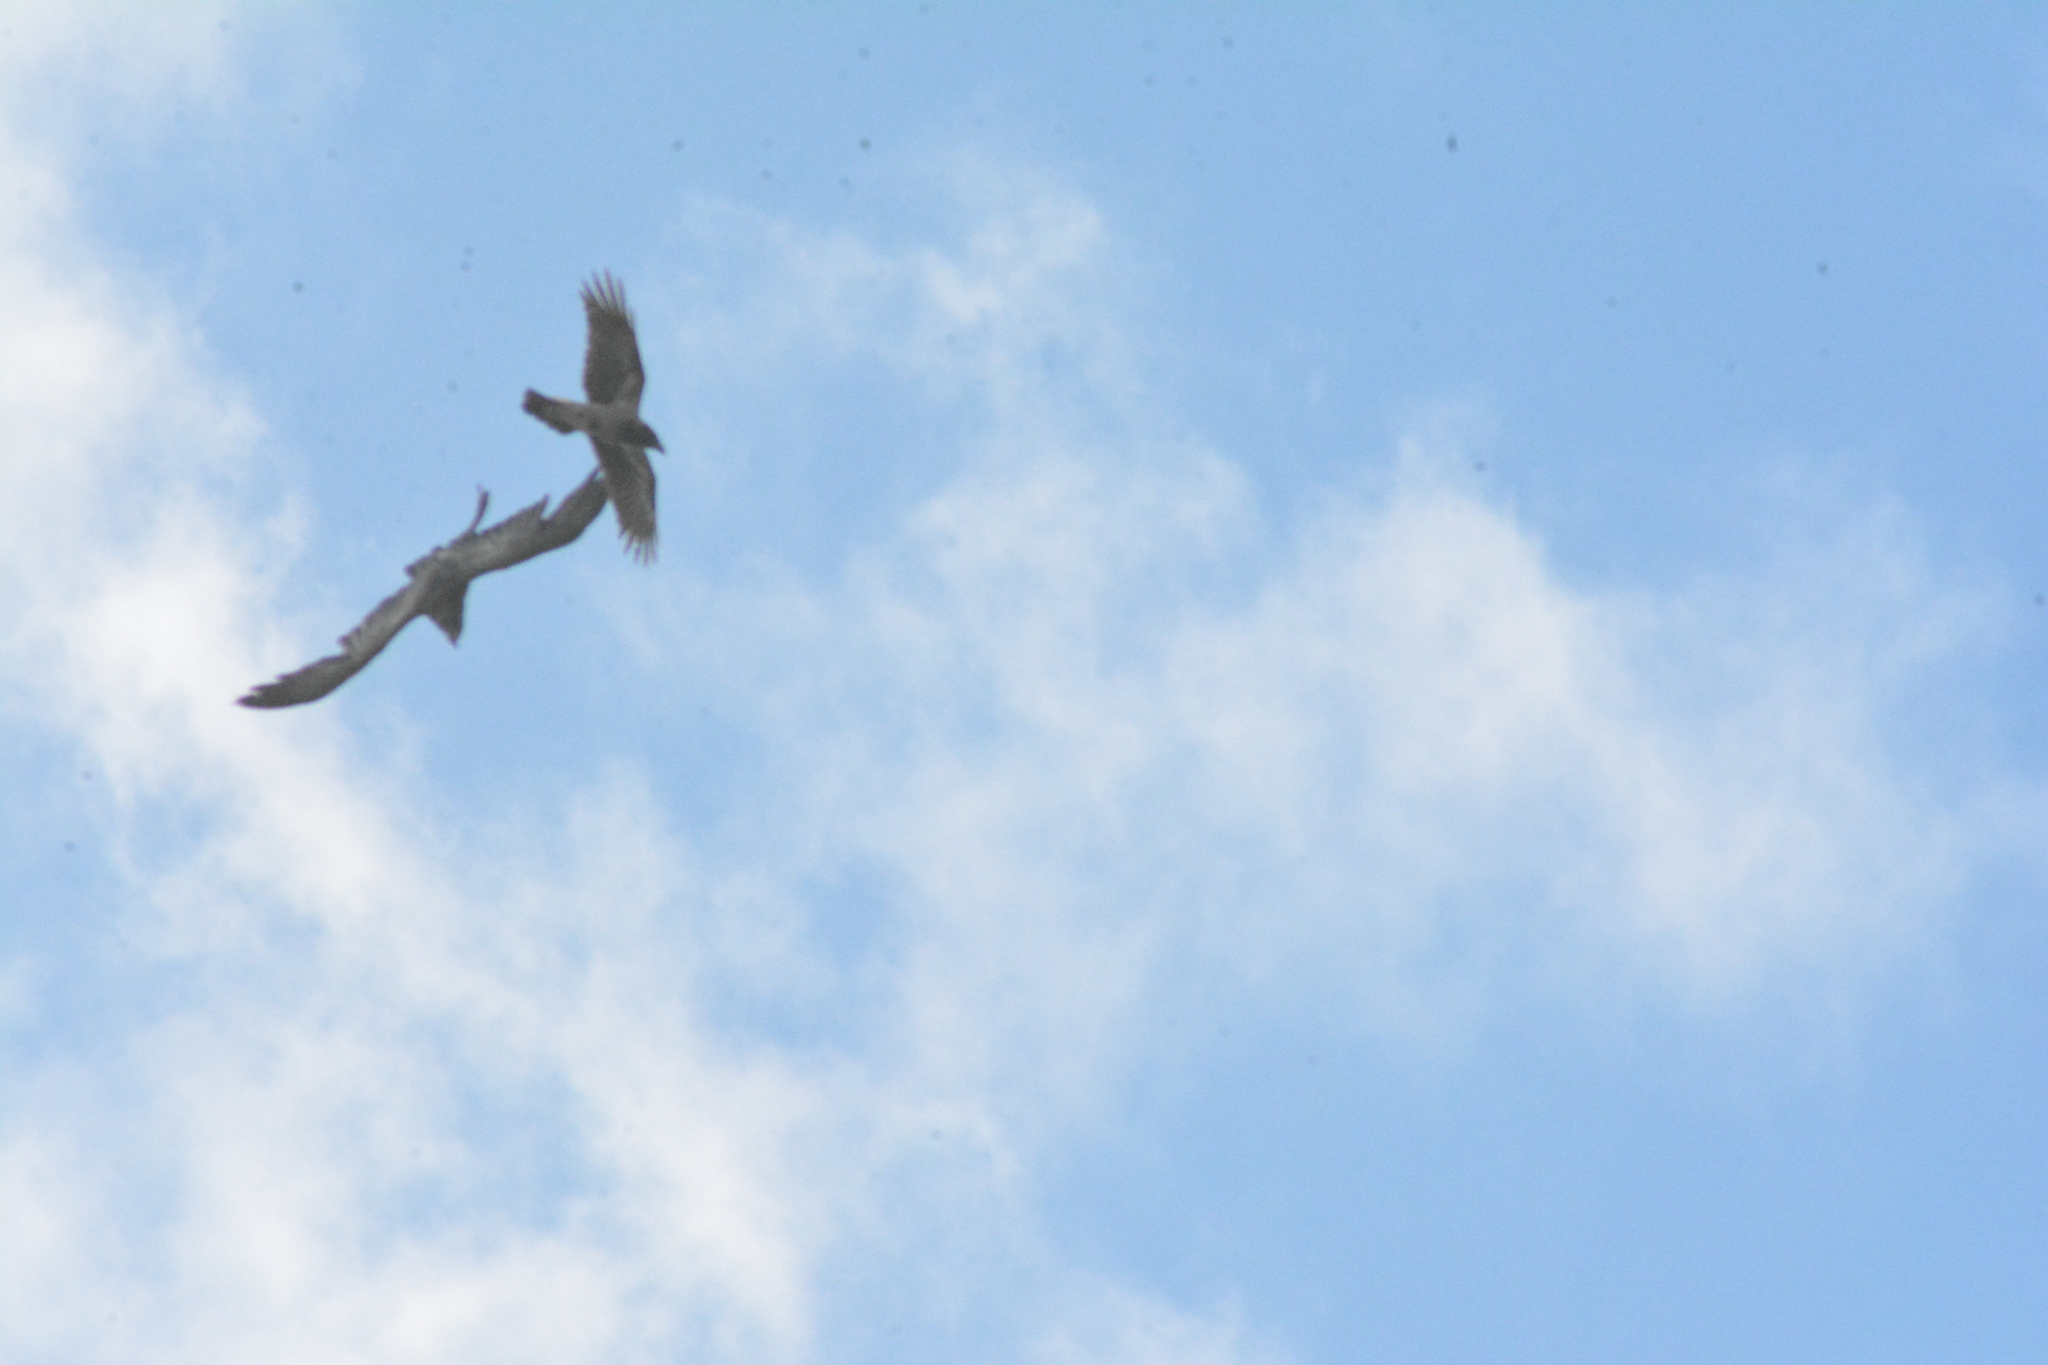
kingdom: Animalia
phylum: Chordata
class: Aves
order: Passeriformes
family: Corvidae
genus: Corvus
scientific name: Corvus cornix
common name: Hooded crow
